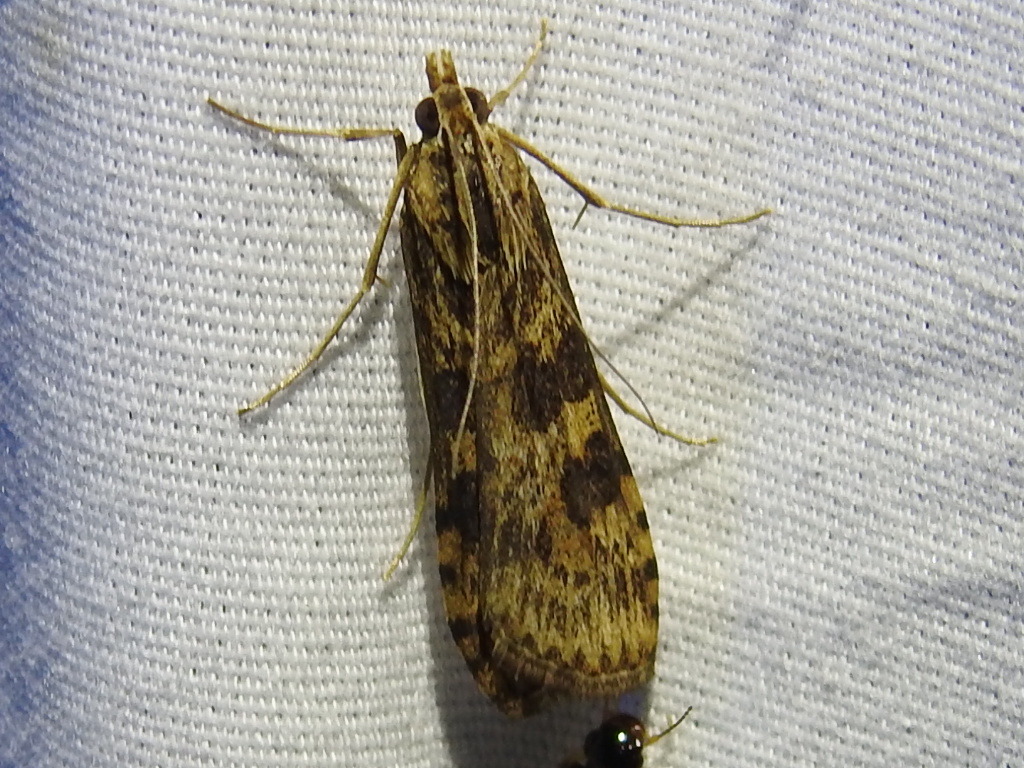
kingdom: Animalia
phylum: Arthropoda
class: Insecta
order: Lepidoptera
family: Crambidae
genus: Nomophila
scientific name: Nomophila nearctica
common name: American rush veneer
